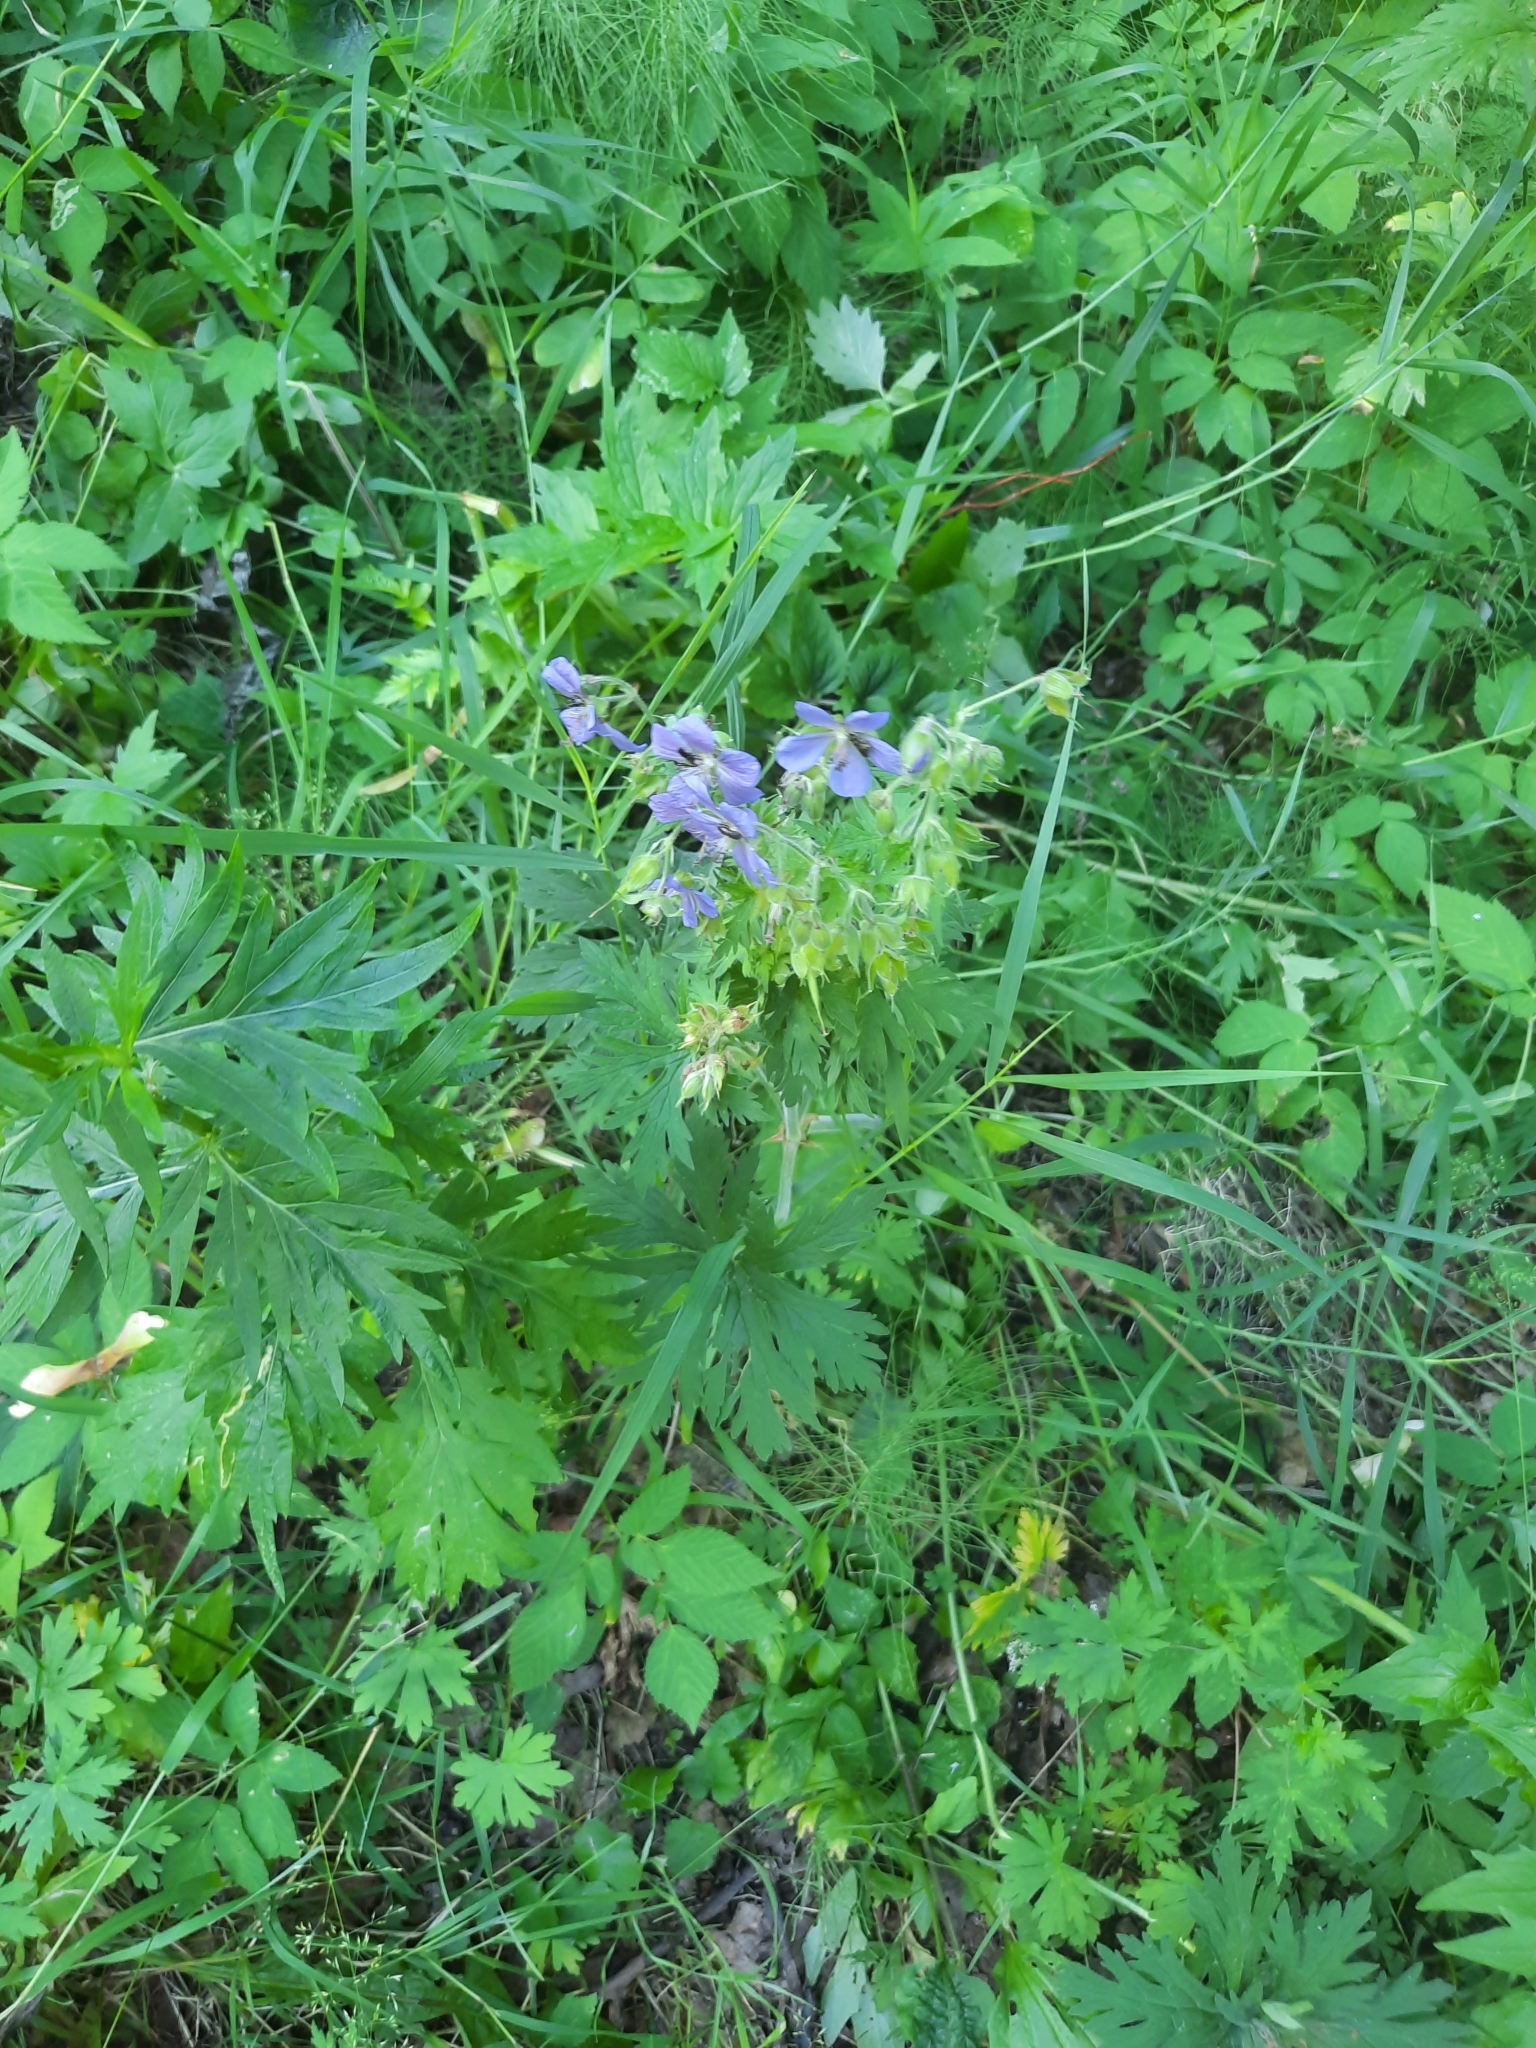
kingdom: Plantae
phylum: Tracheophyta
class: Magnoliopsida
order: Geraniales
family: Geraniaceae
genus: Geranium
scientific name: Geranium pratense
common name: Meadow crane's-bill
